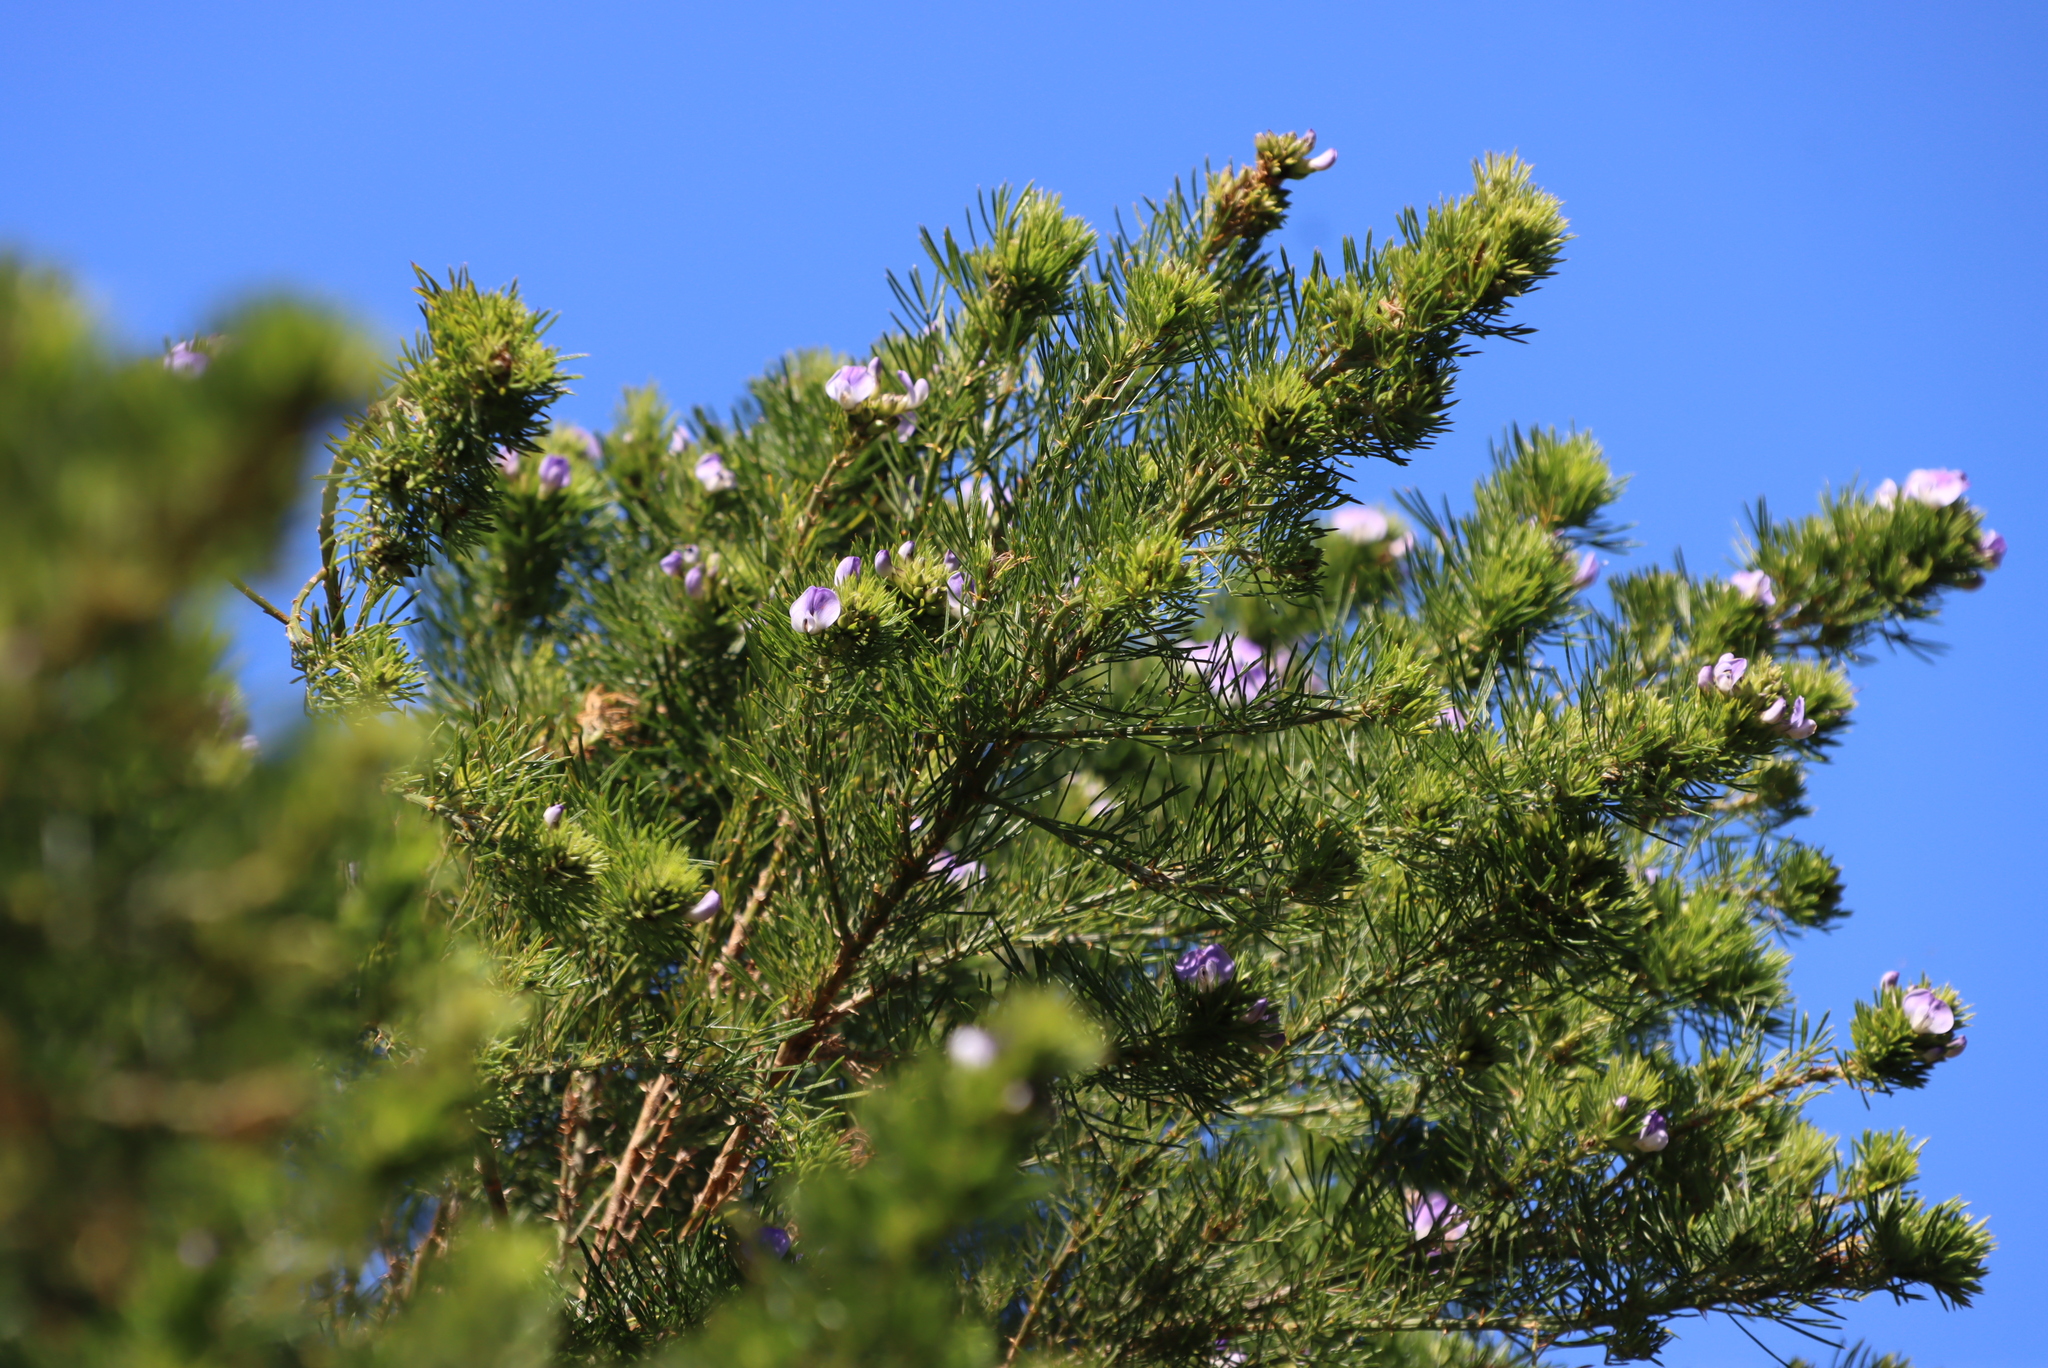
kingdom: Plantae
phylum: Tracheophyta
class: Magnoliopsida
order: Fabales
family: Fabaceae
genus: Psoralea
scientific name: Psoralea pinnata
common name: African scurfpea
